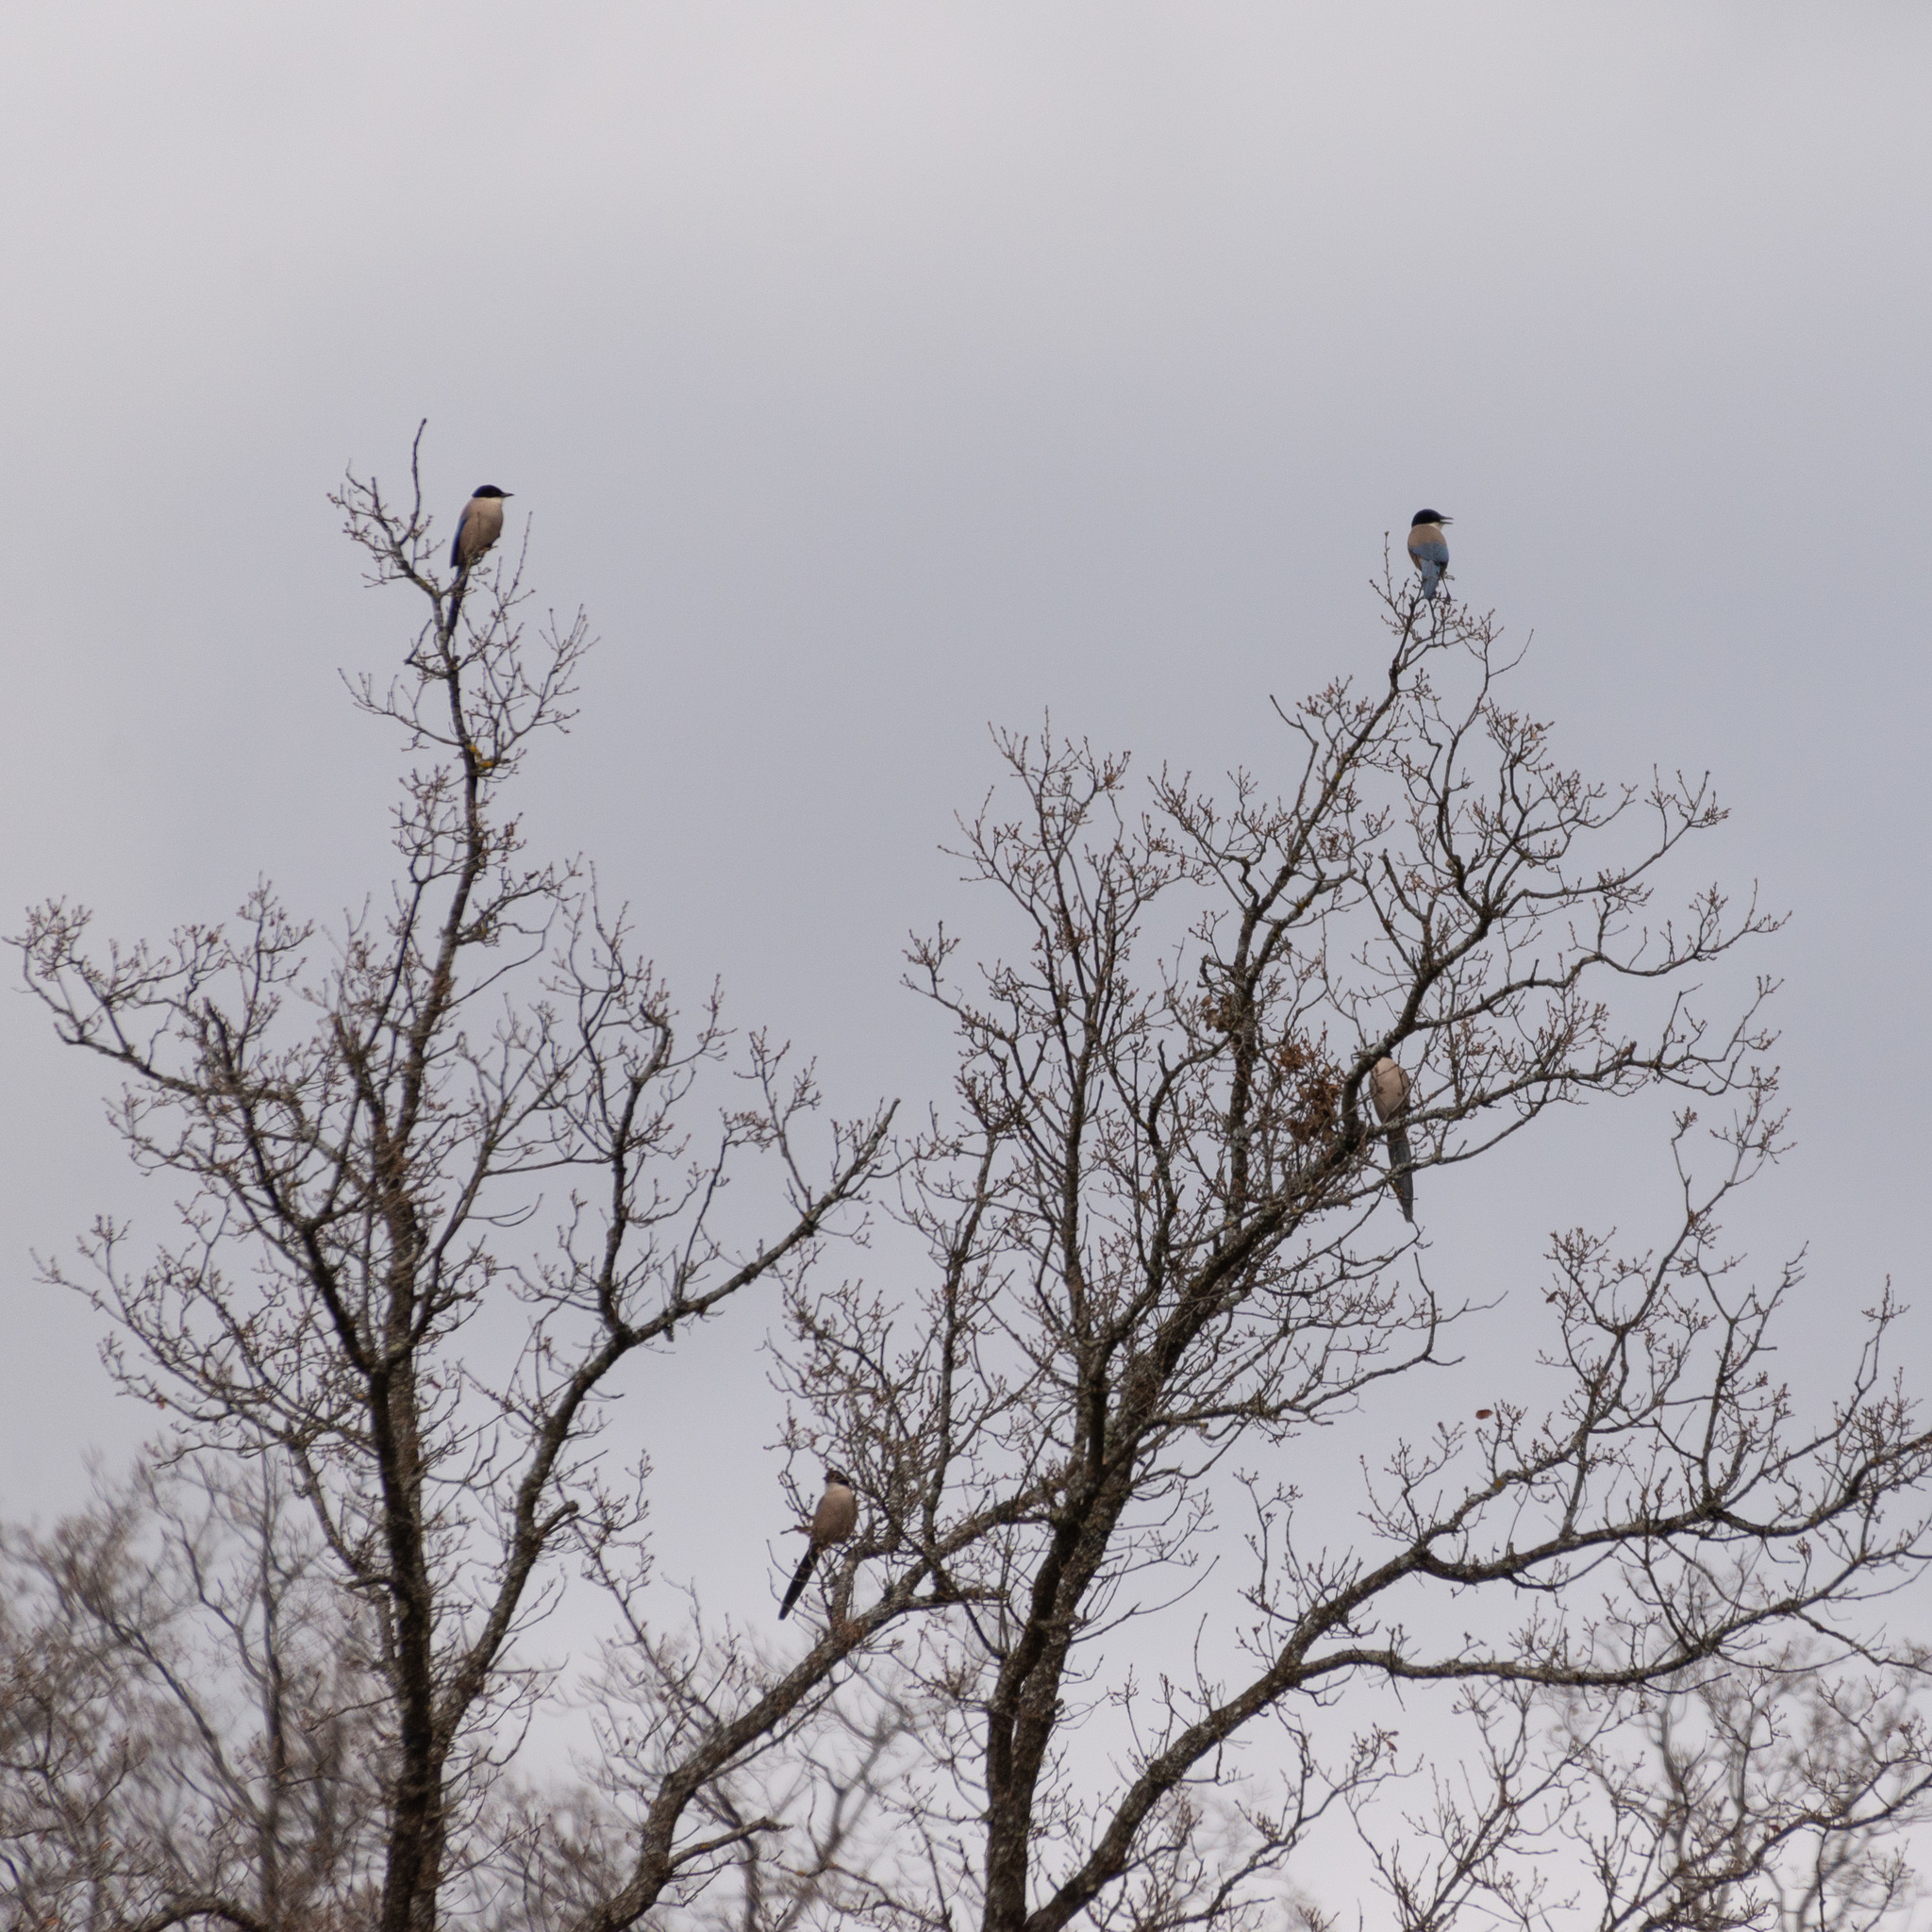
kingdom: Animalia
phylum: Chordata
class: Aves
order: Passeriformes
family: Corvidae
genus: Cyanopica
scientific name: Cyanopica cooki
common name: Iberian magpie
